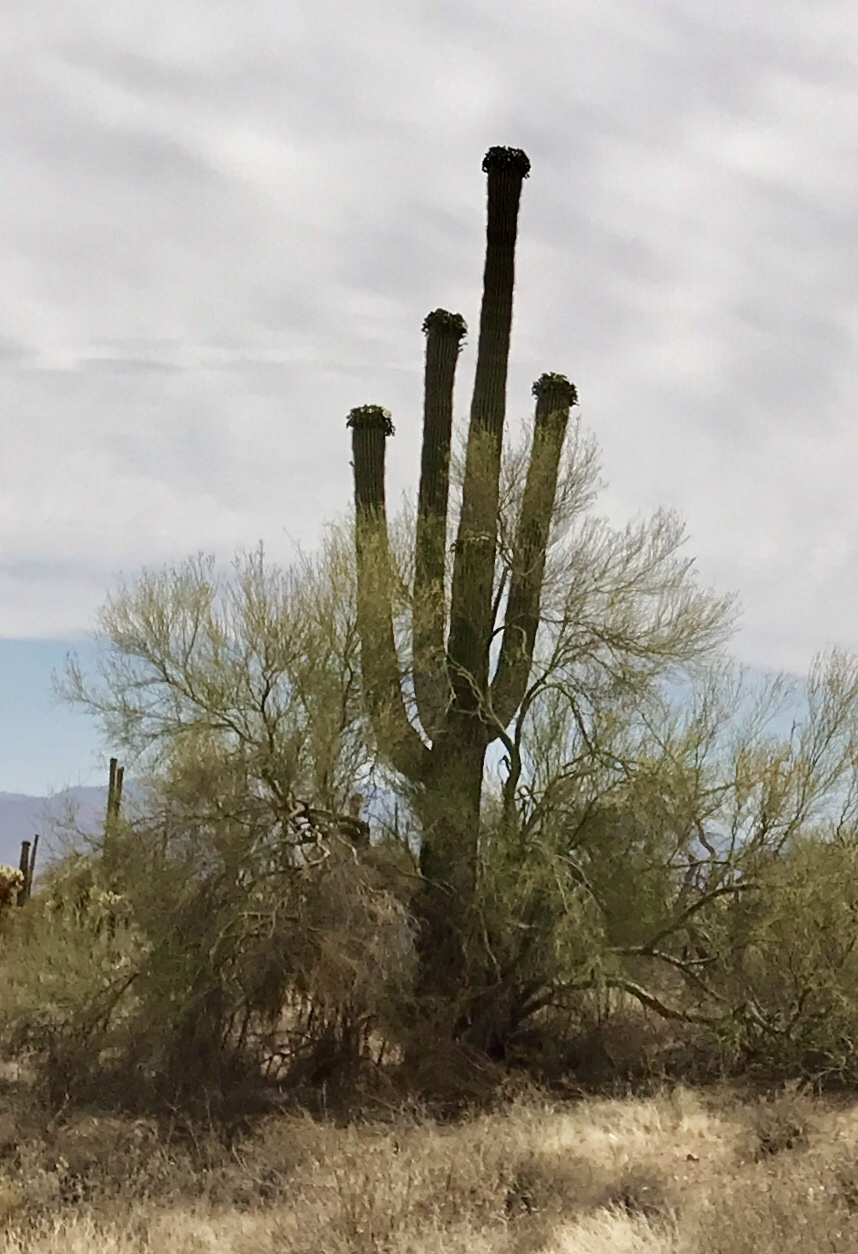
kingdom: Plantae
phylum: Tracheophyta
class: Magnoliopsida
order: Caryophyllales
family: Cactaceae
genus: Carnegiea
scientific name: Carnegiea gigantea
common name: Saguaro
